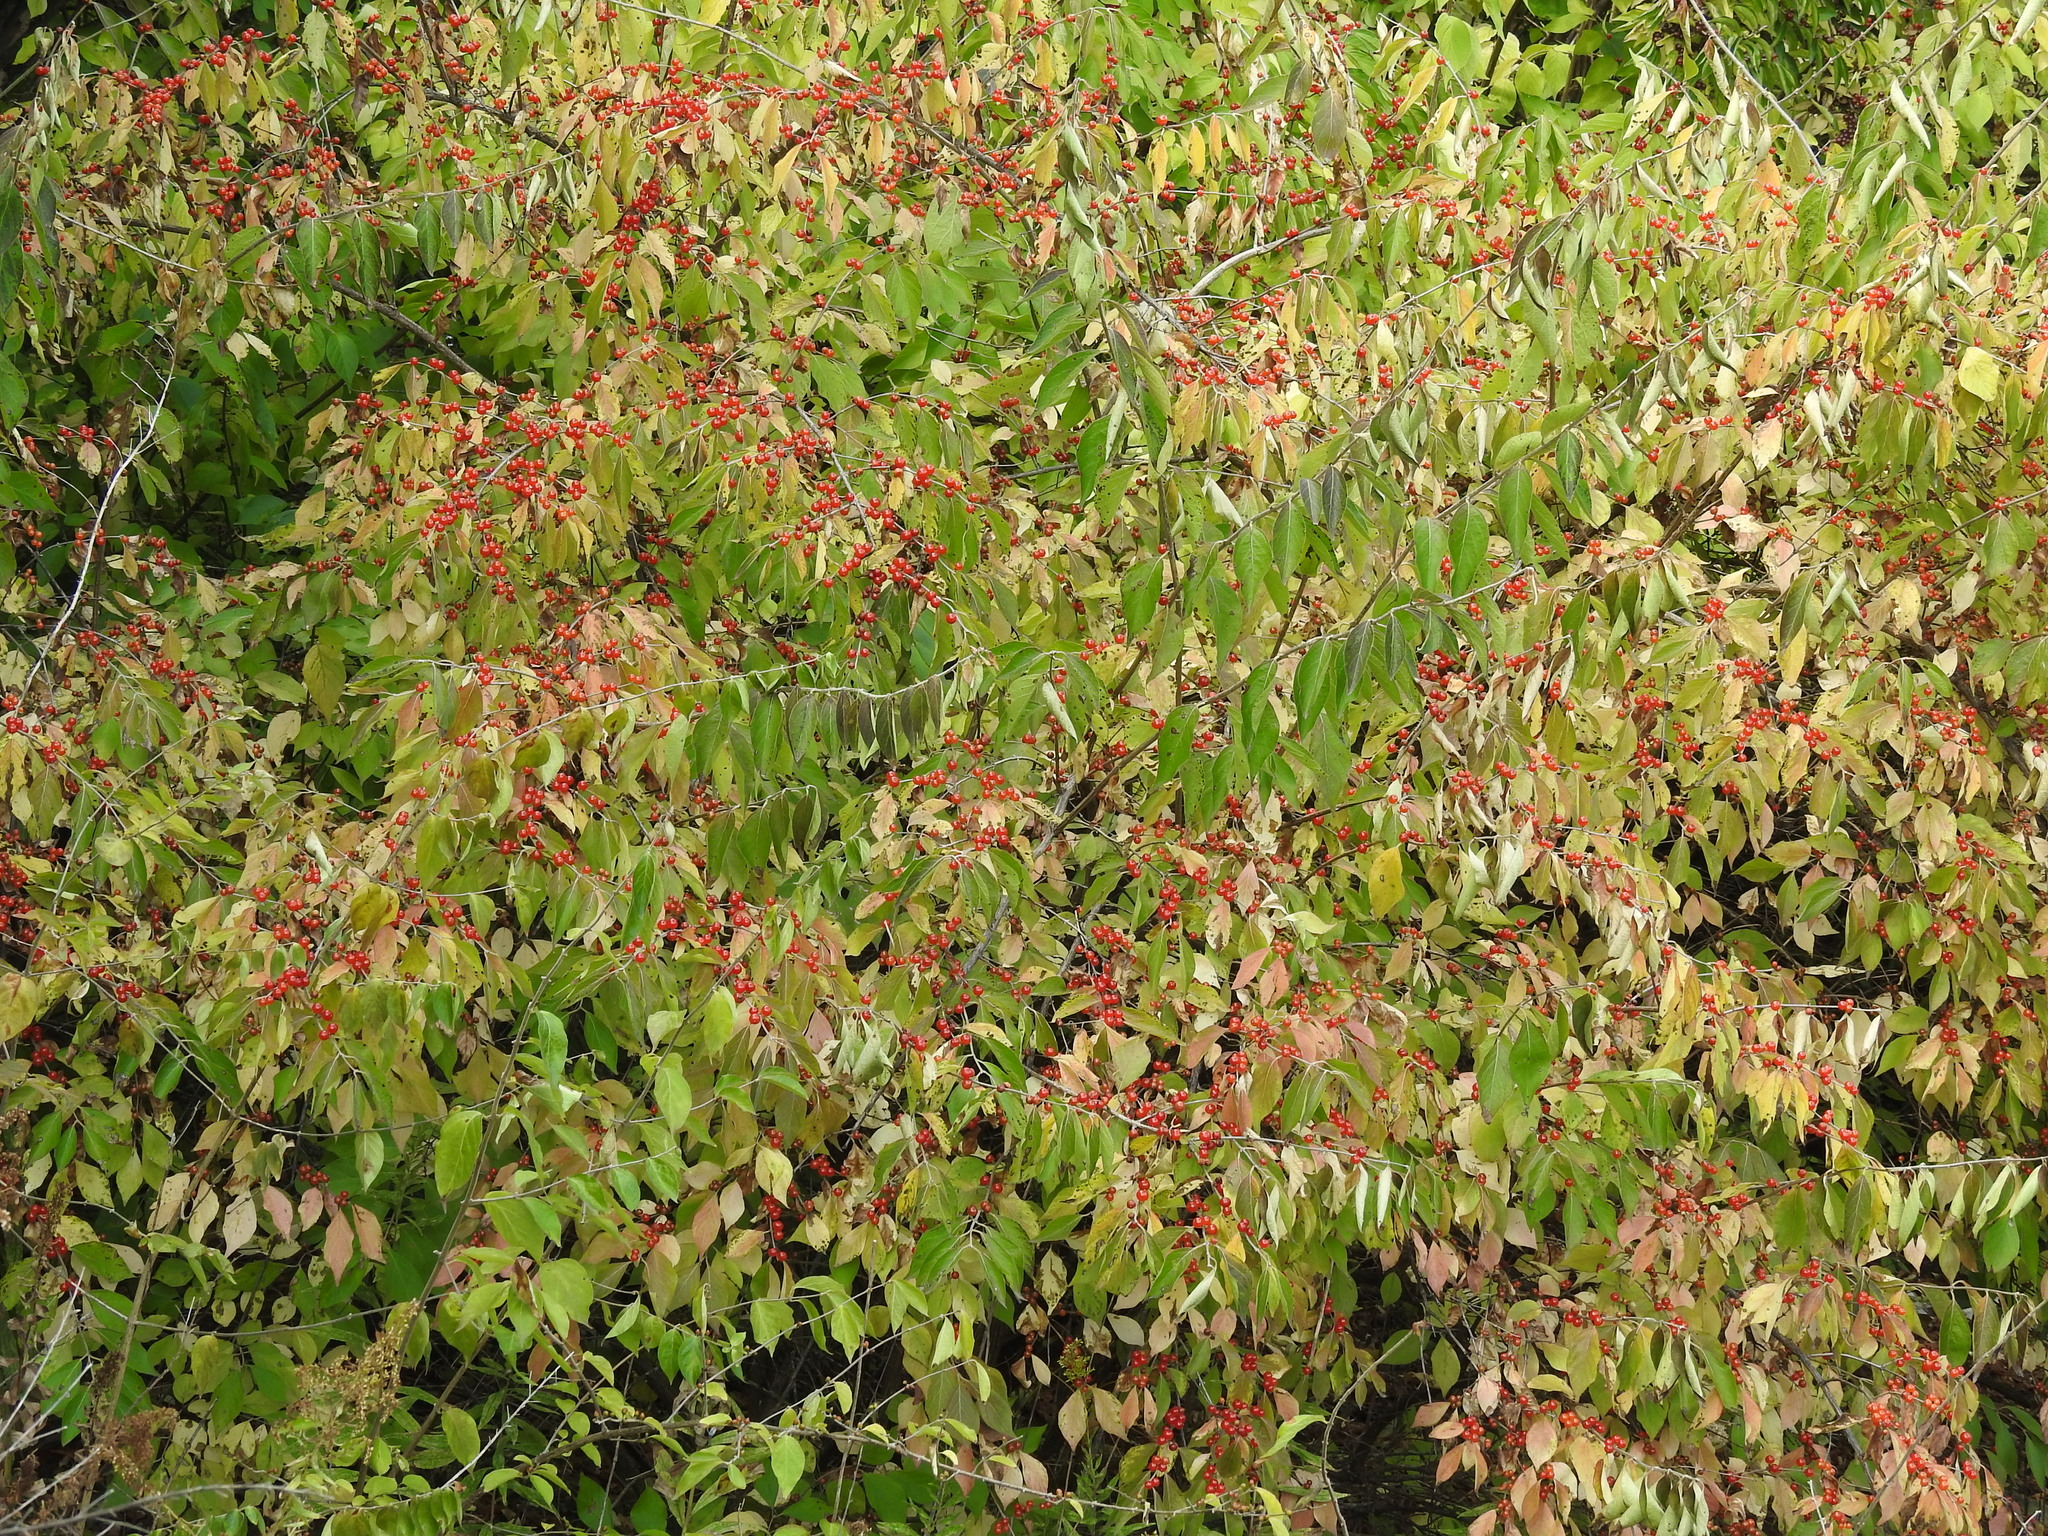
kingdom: Plantae
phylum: Tracheophyta
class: Magnoliopsida
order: Dipsacales
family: Caprifoliaceae
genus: Lonicera
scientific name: Lonicera maackii
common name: Amur honeysuckle
